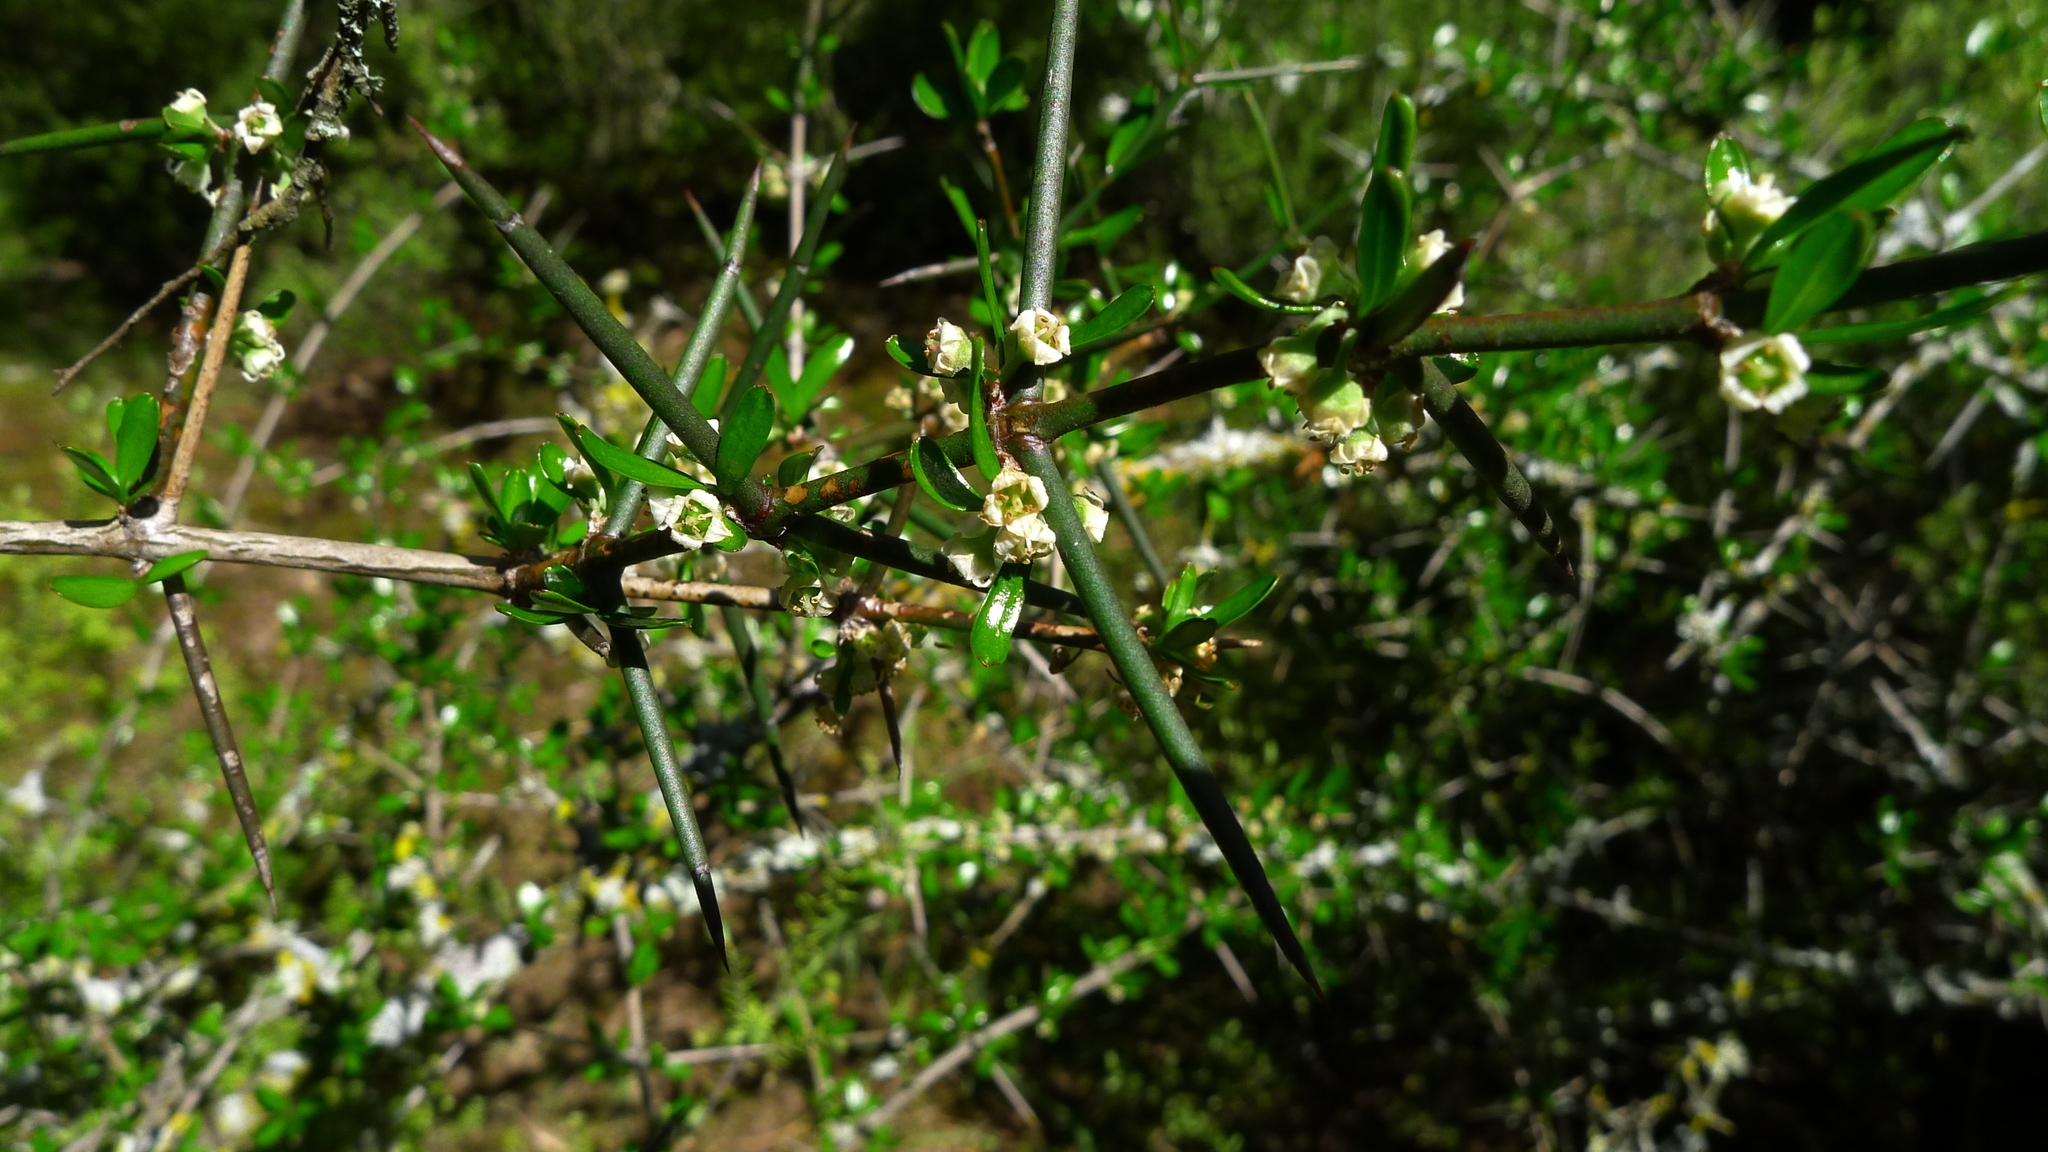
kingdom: Plantae
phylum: Tracheophyta
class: Magnoliopsida
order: Rosales
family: Rhamnaceae
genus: Discaria
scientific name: Discaria toumatou
